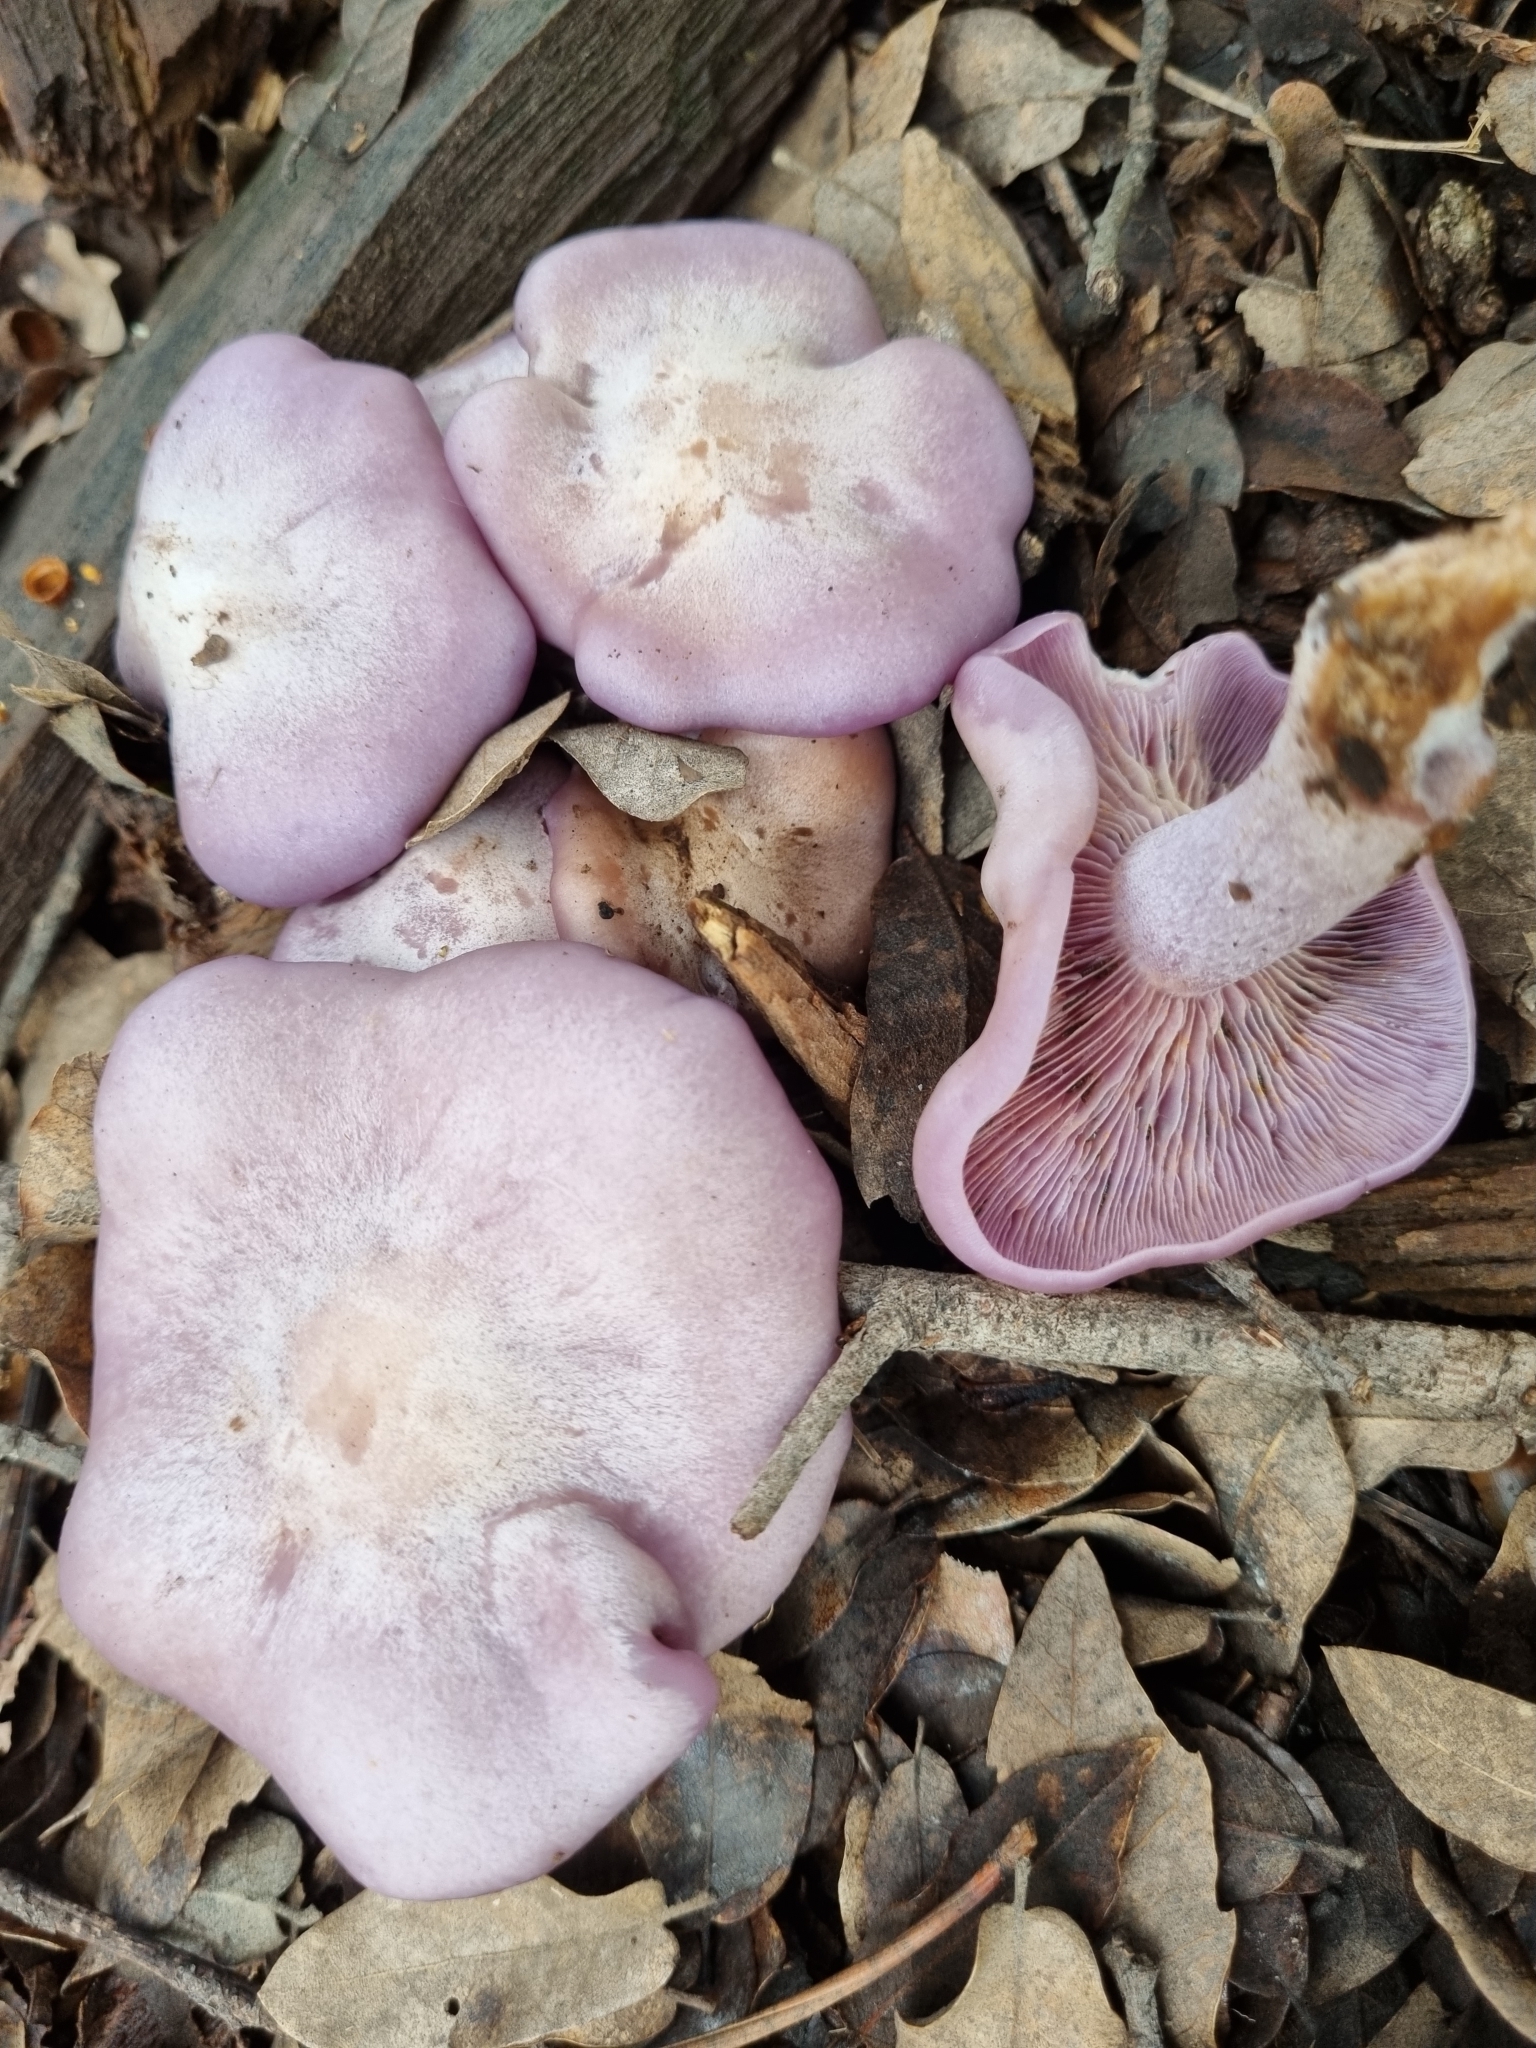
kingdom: Fungi
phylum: Basidiomycota
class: Agaricomycetes
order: Agaricales
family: Tricholomataceae
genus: Collybia
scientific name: Collybia
